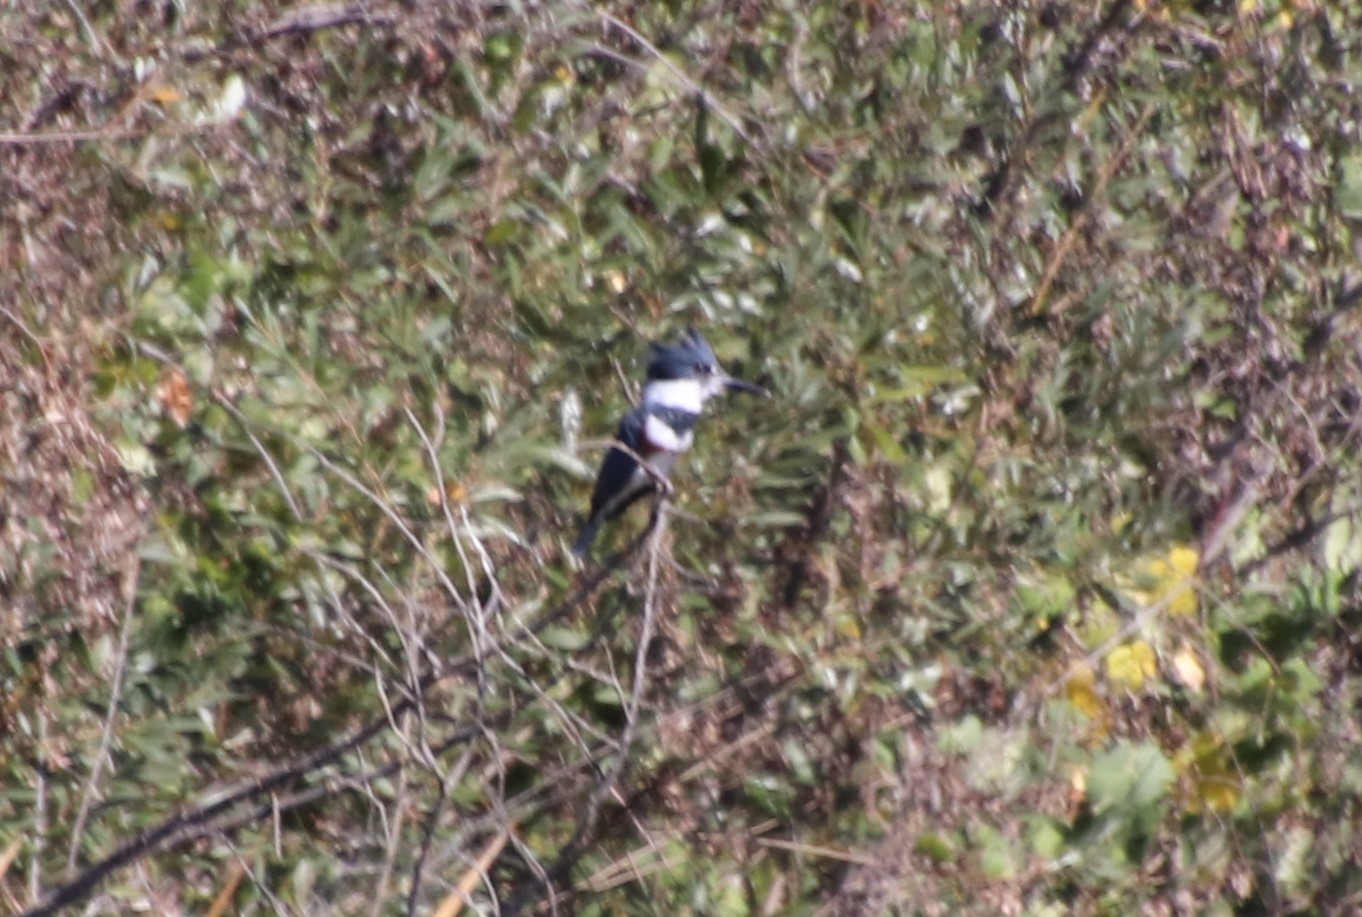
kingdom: Animalia
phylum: Chordata
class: Aves
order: Coraciiformes
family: Alcedinidae
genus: Megaceryle
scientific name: Megaceryle alcyon
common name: Belted kingfisher
